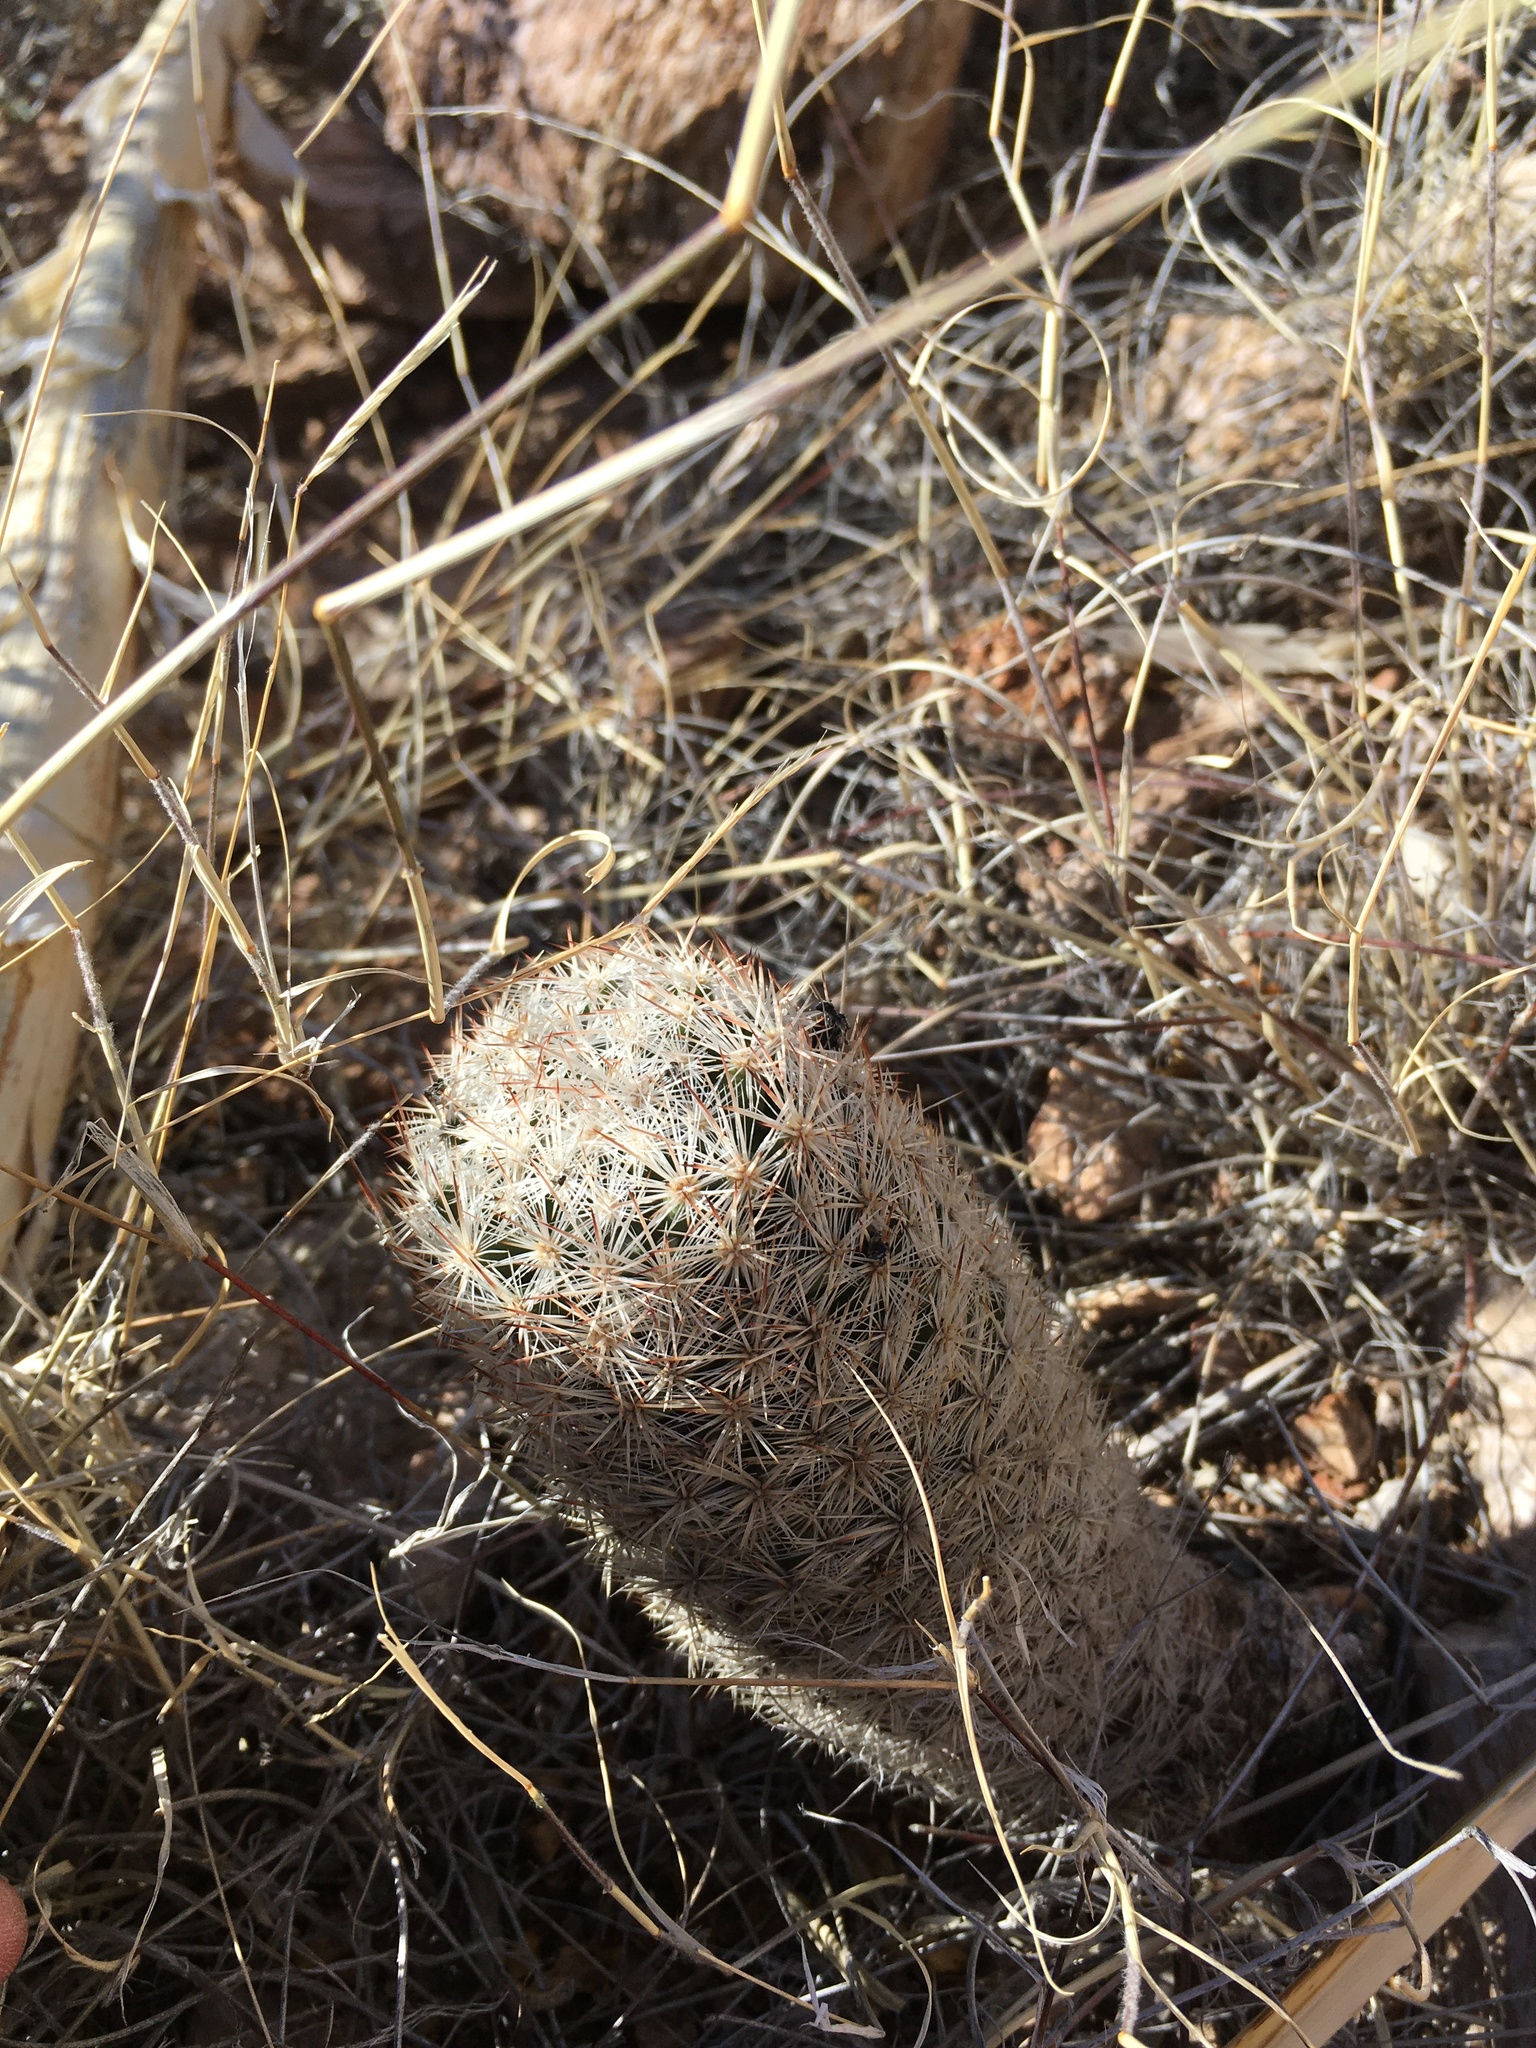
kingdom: Plantae
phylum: Tracheophyta
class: Magnoliopsida
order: Caryophyllales
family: Cactaceae
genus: Pelecyphora
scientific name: Pelecyphora sneedii
